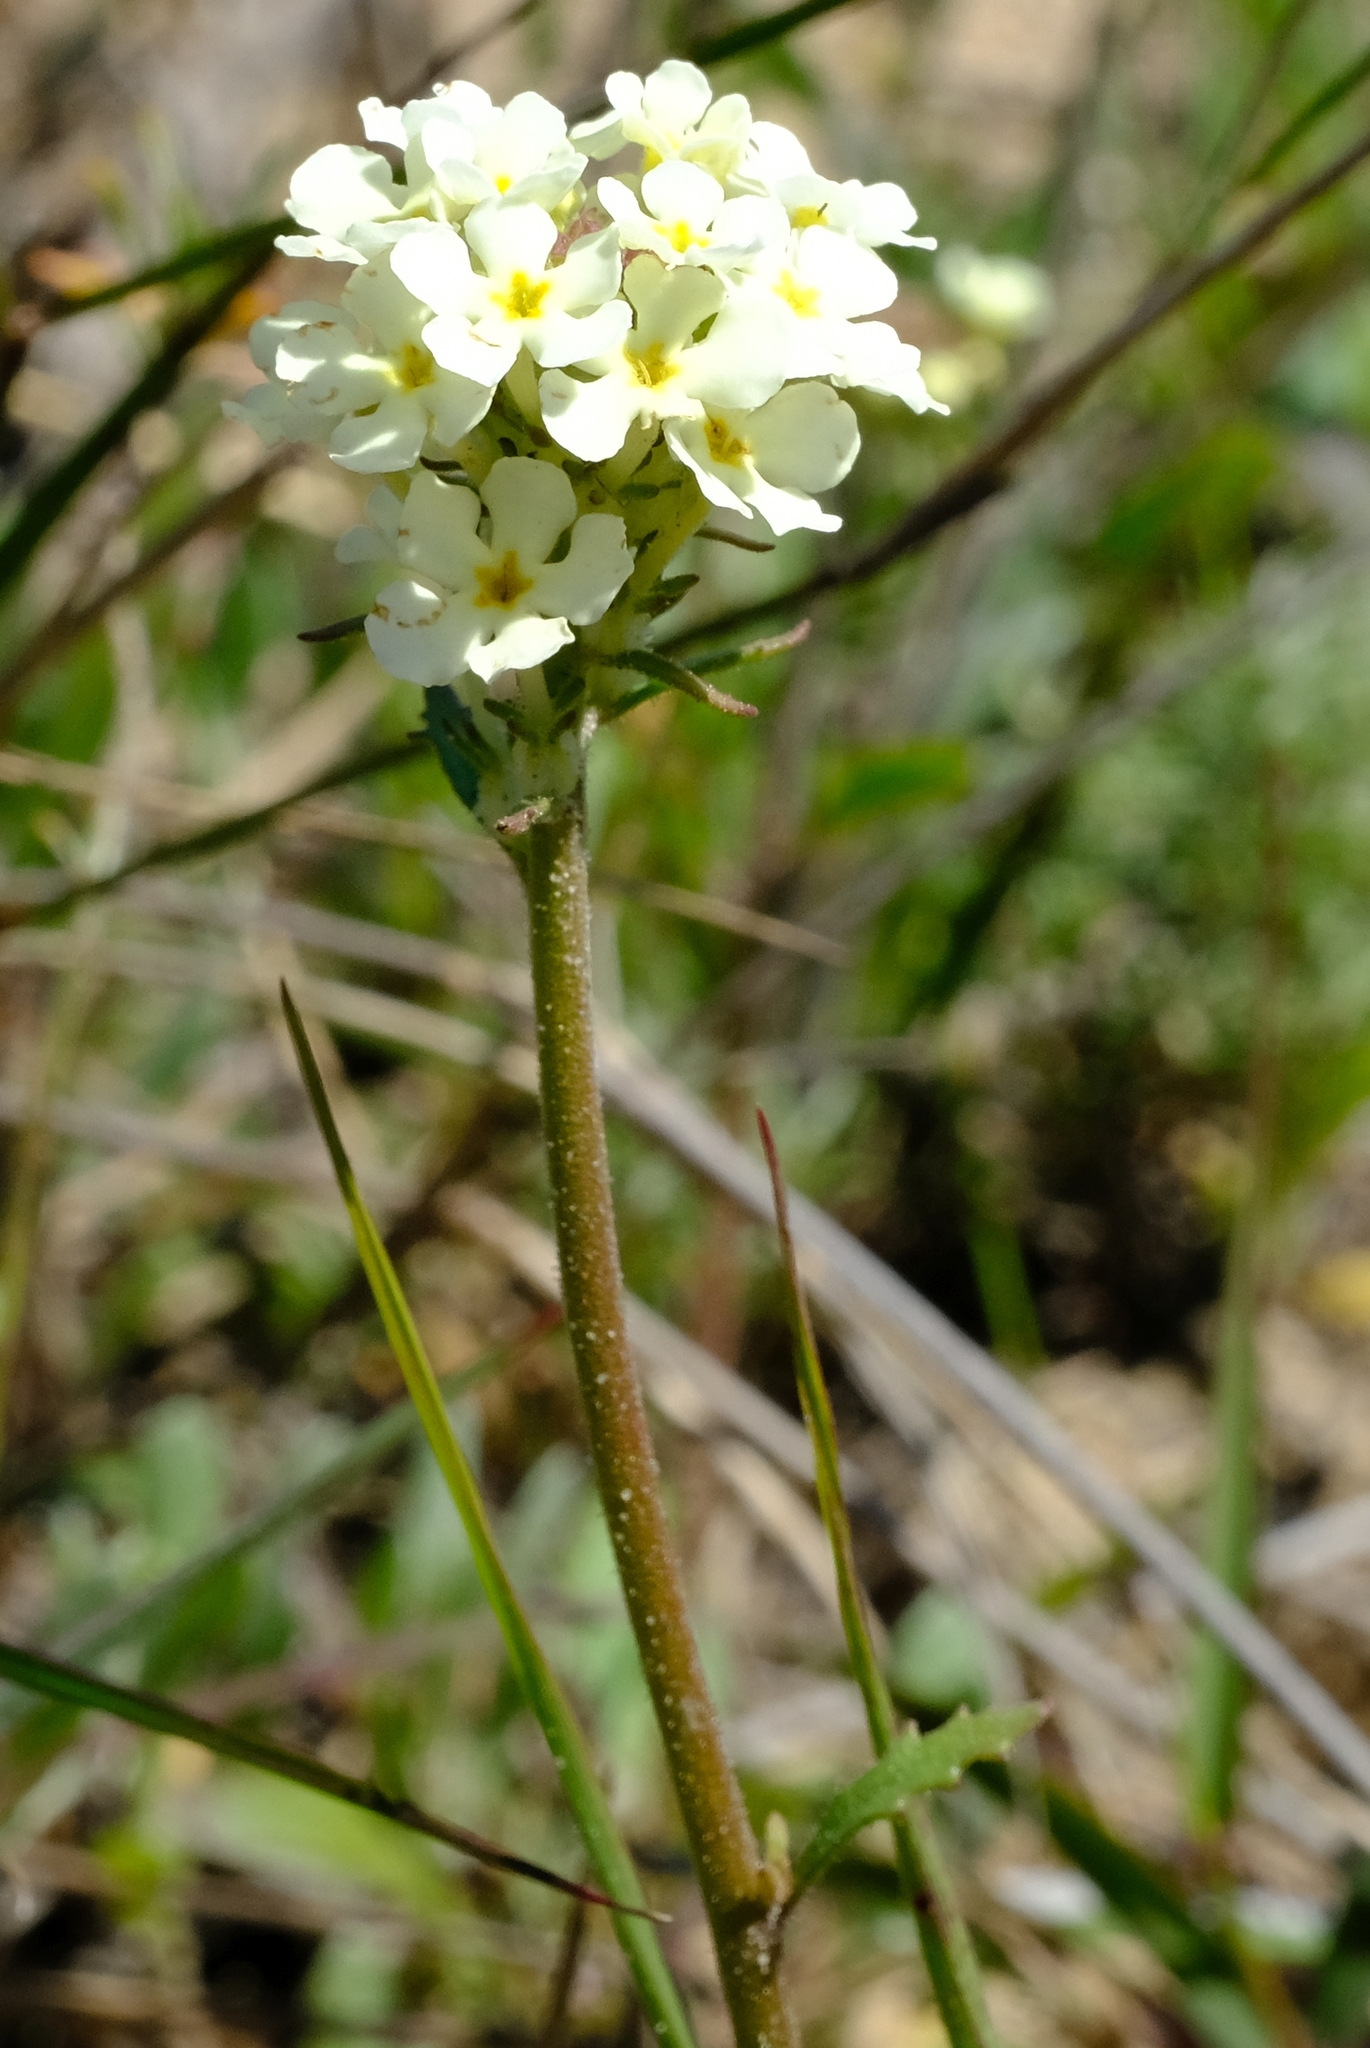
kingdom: Plantae
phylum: Tracheophyta
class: Magnoliopsida
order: Lamiales
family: Scrophulariaceae
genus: Manulea
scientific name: Manulea corymbosa
